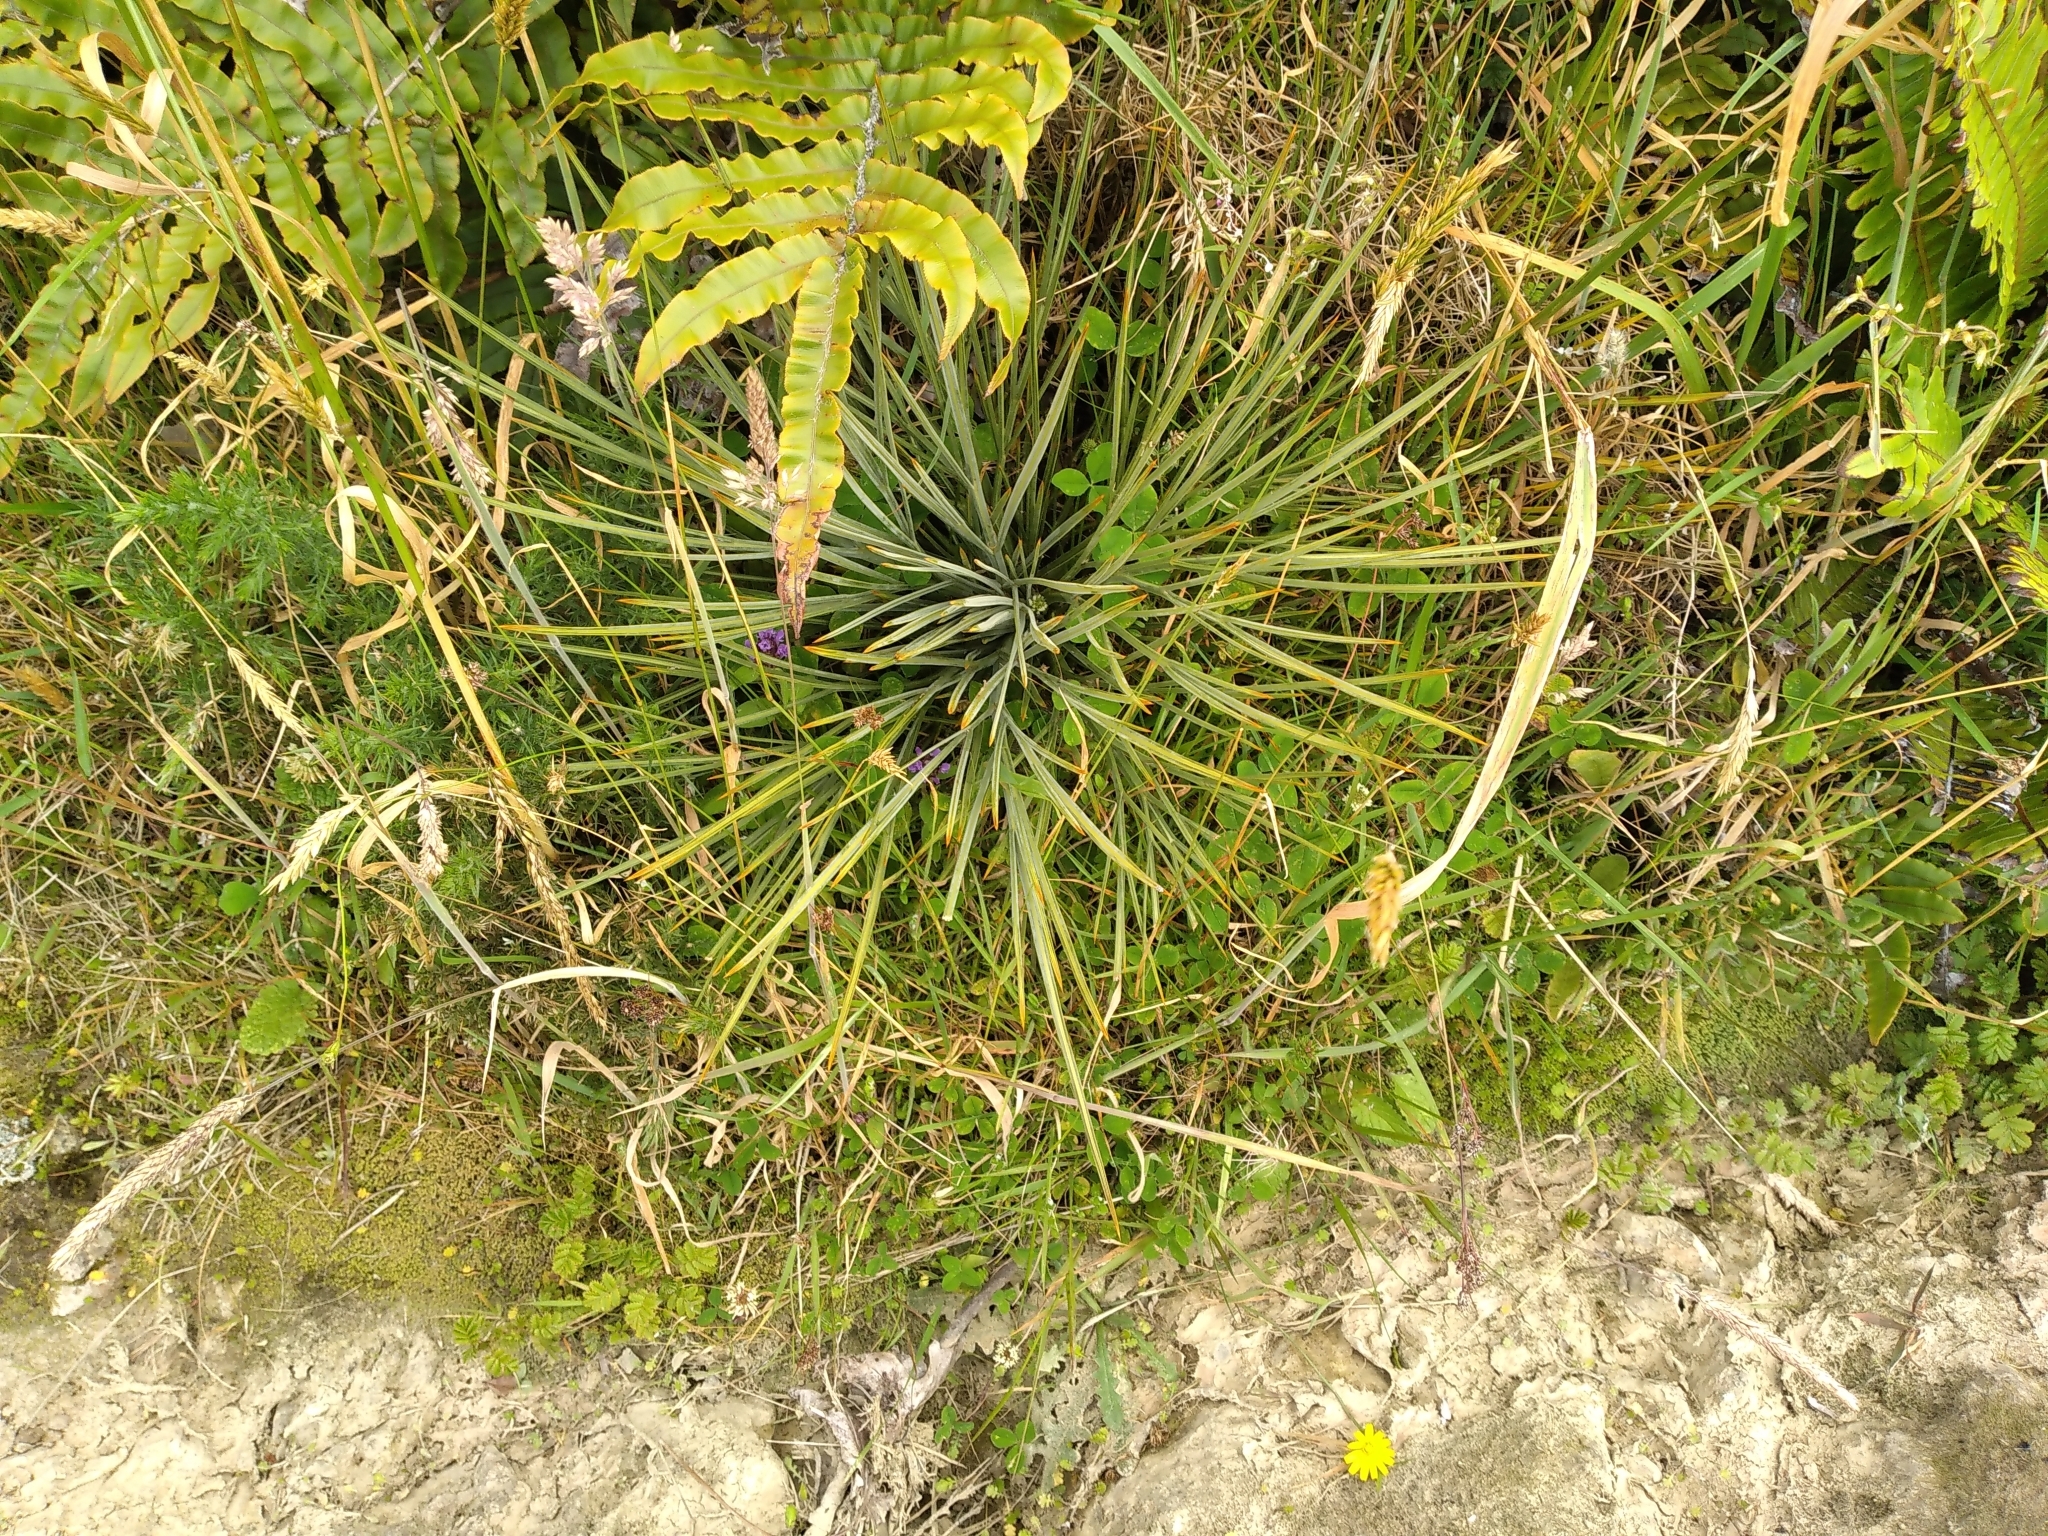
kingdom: Plantae
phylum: Tracheophyta
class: Magnoliopsida
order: Apiales
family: Apiaceae
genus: Aciphylla
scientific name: Aciphylla squarrosa
